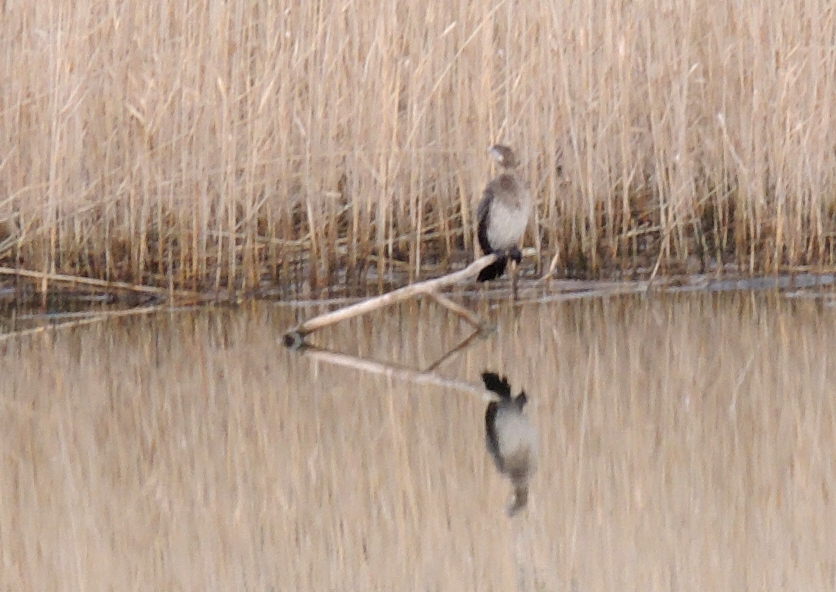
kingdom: Animalia
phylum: Chordata
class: Aves
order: Suliformes
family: Phalacrocoracidae
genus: Microcarbo
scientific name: Microcarbo pygmaeus
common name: Pygmy cormorant
